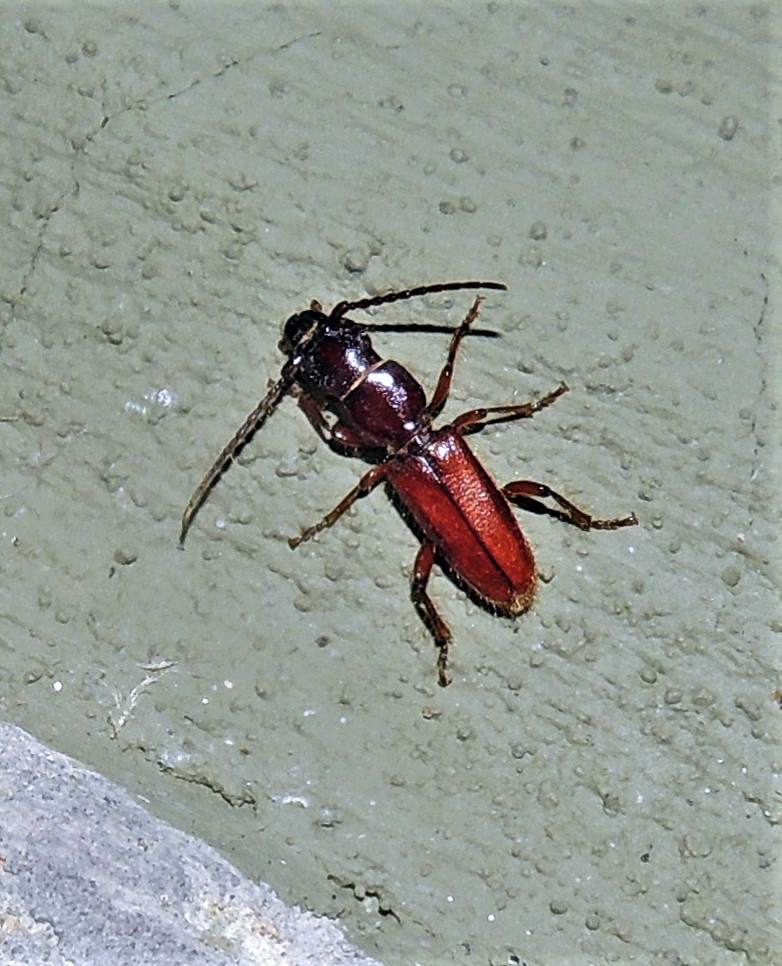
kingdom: Animalia
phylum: Arthropoda
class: Insecta
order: Coleoptera
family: Cerambycidae
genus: Erlandia
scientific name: Erlandia inopinata
